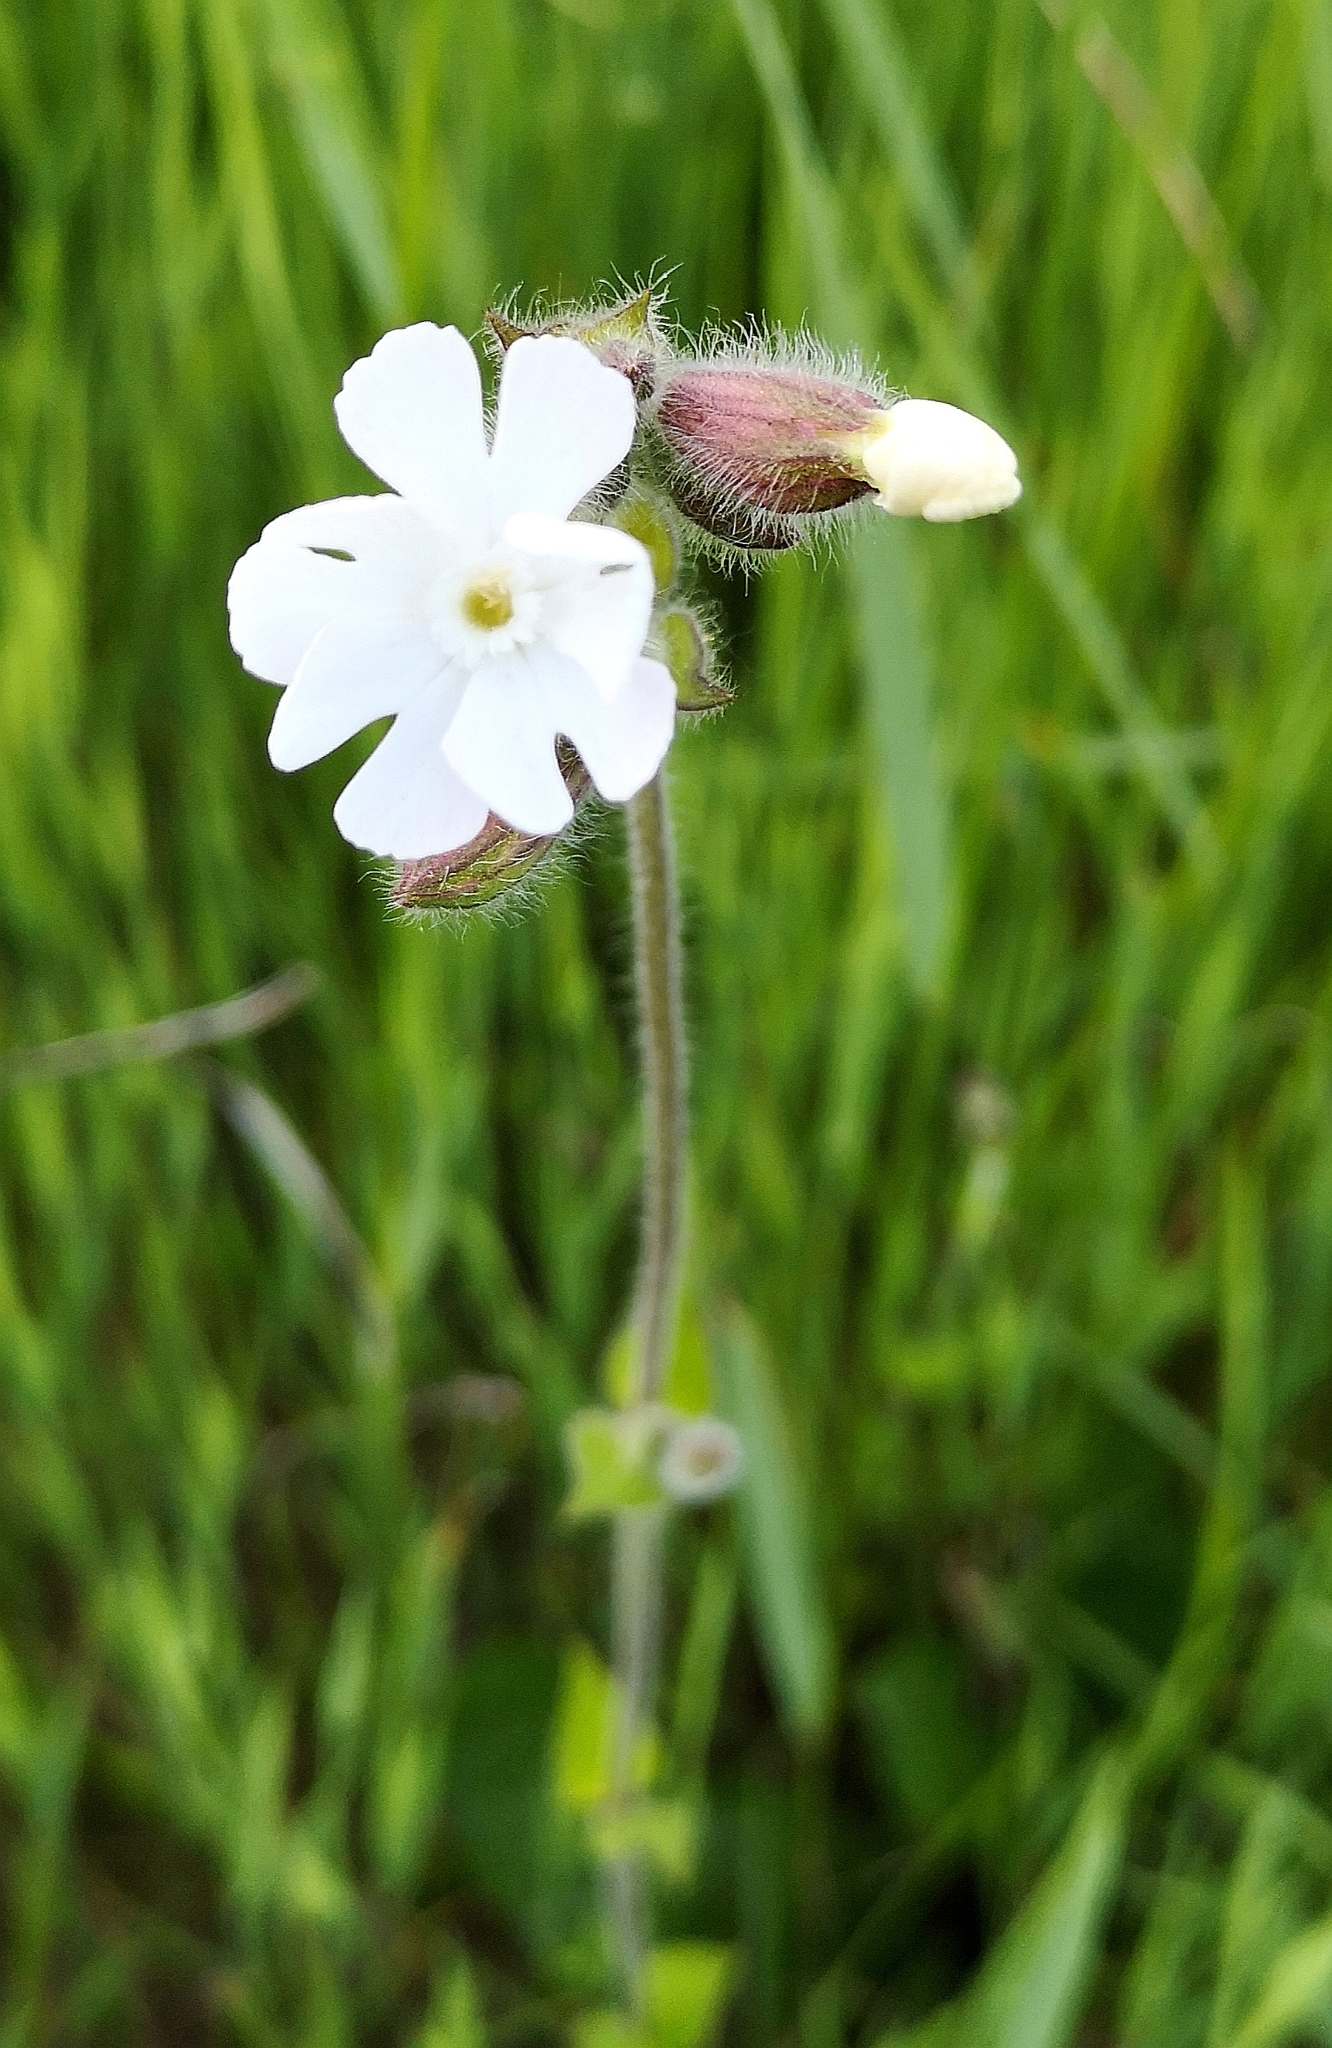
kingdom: Plantae
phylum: Tracheophyta
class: Magnoliopsida
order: Caryophyllales
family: Caryophyllaceae
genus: Silene
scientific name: Silene latifolia
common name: White campion
